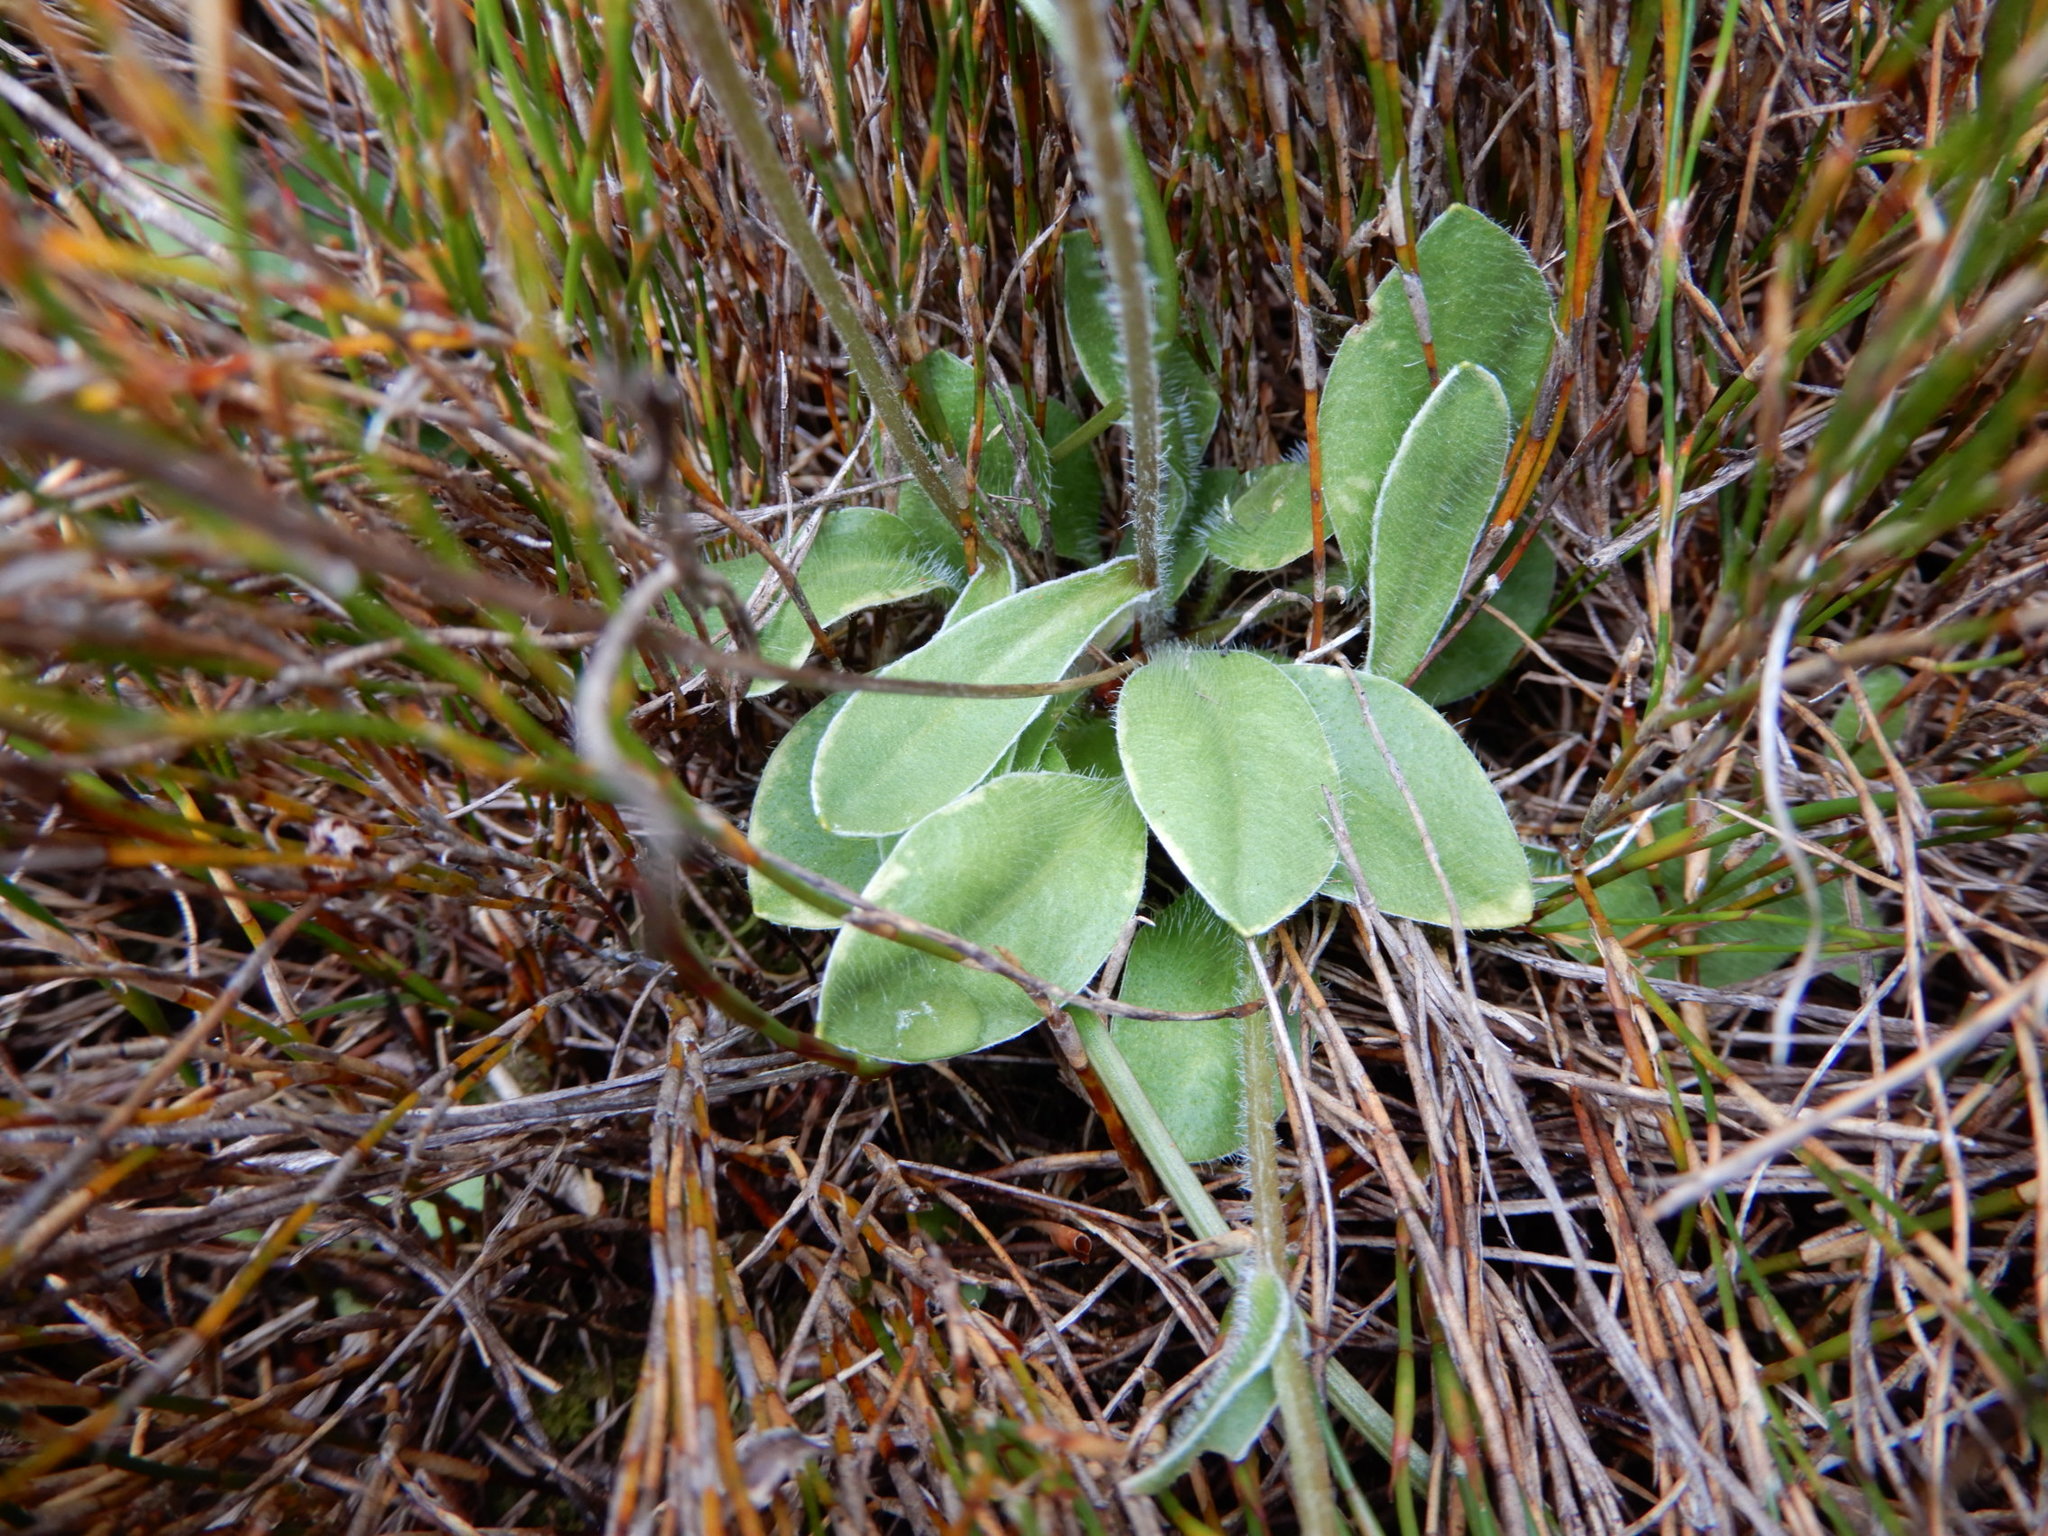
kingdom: Plantae
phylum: Tracheophyta
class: Magnoliopsida
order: Asterales
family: Asteraceae
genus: Craspedia
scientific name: Craspedia uniflora
